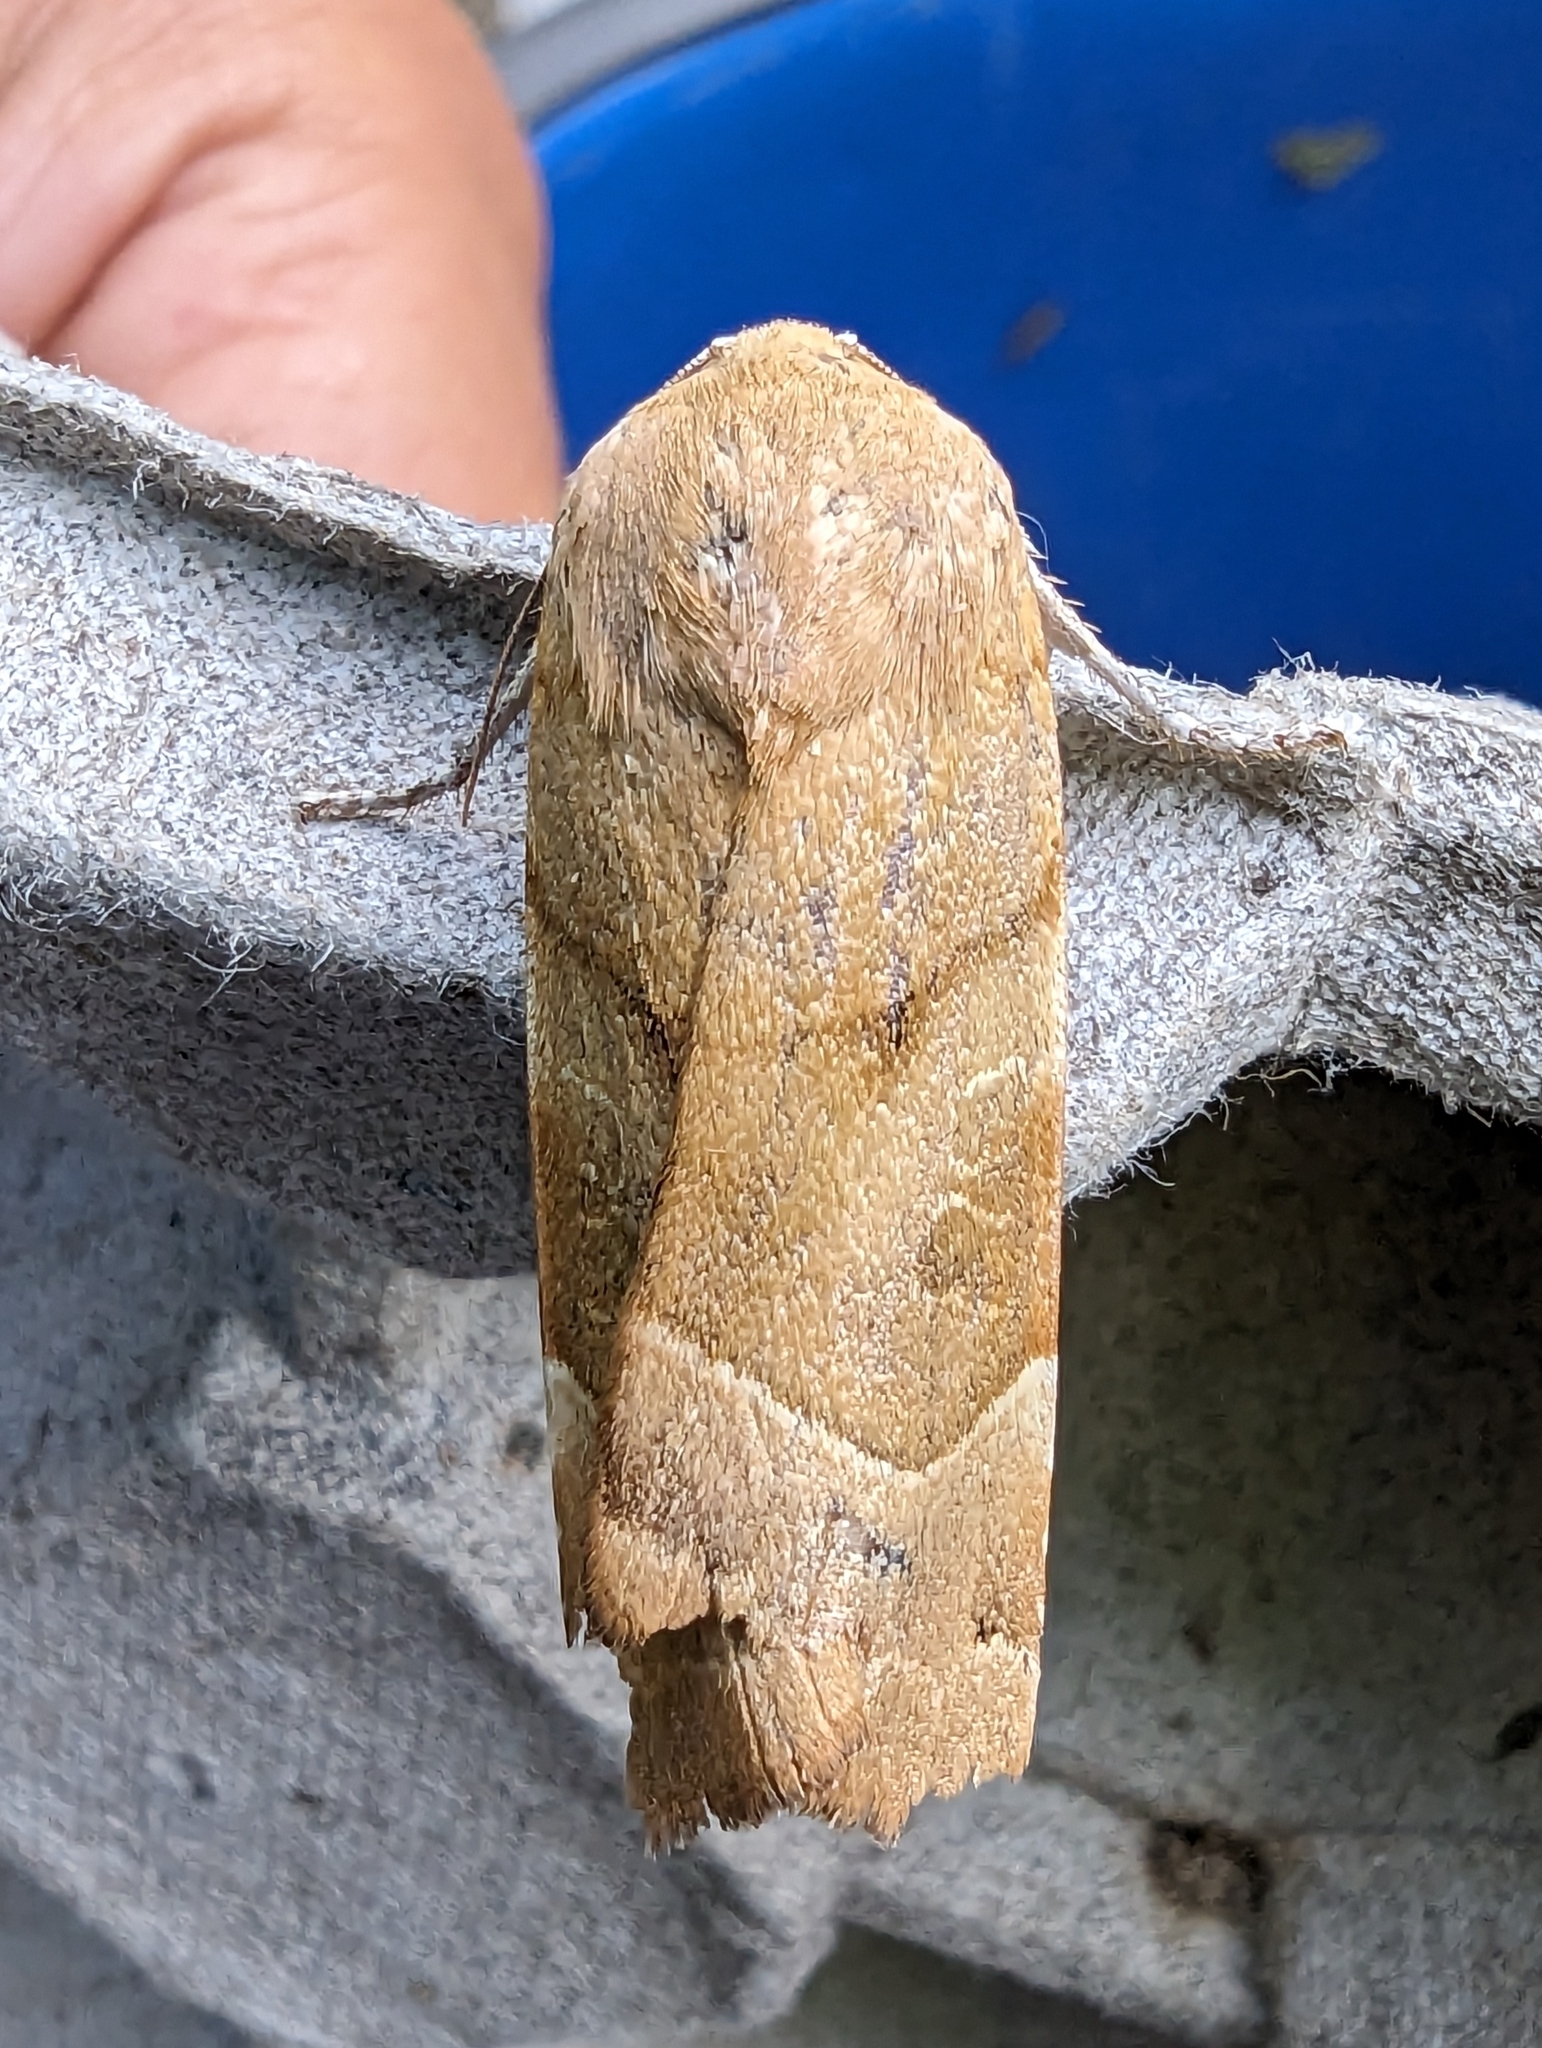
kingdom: Animalia
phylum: Arthropoda
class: Insecta
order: Lepidoptera
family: Noctuidae
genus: Noctua
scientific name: Noctua fimbriata
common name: Broad-bordered yellow underwing
